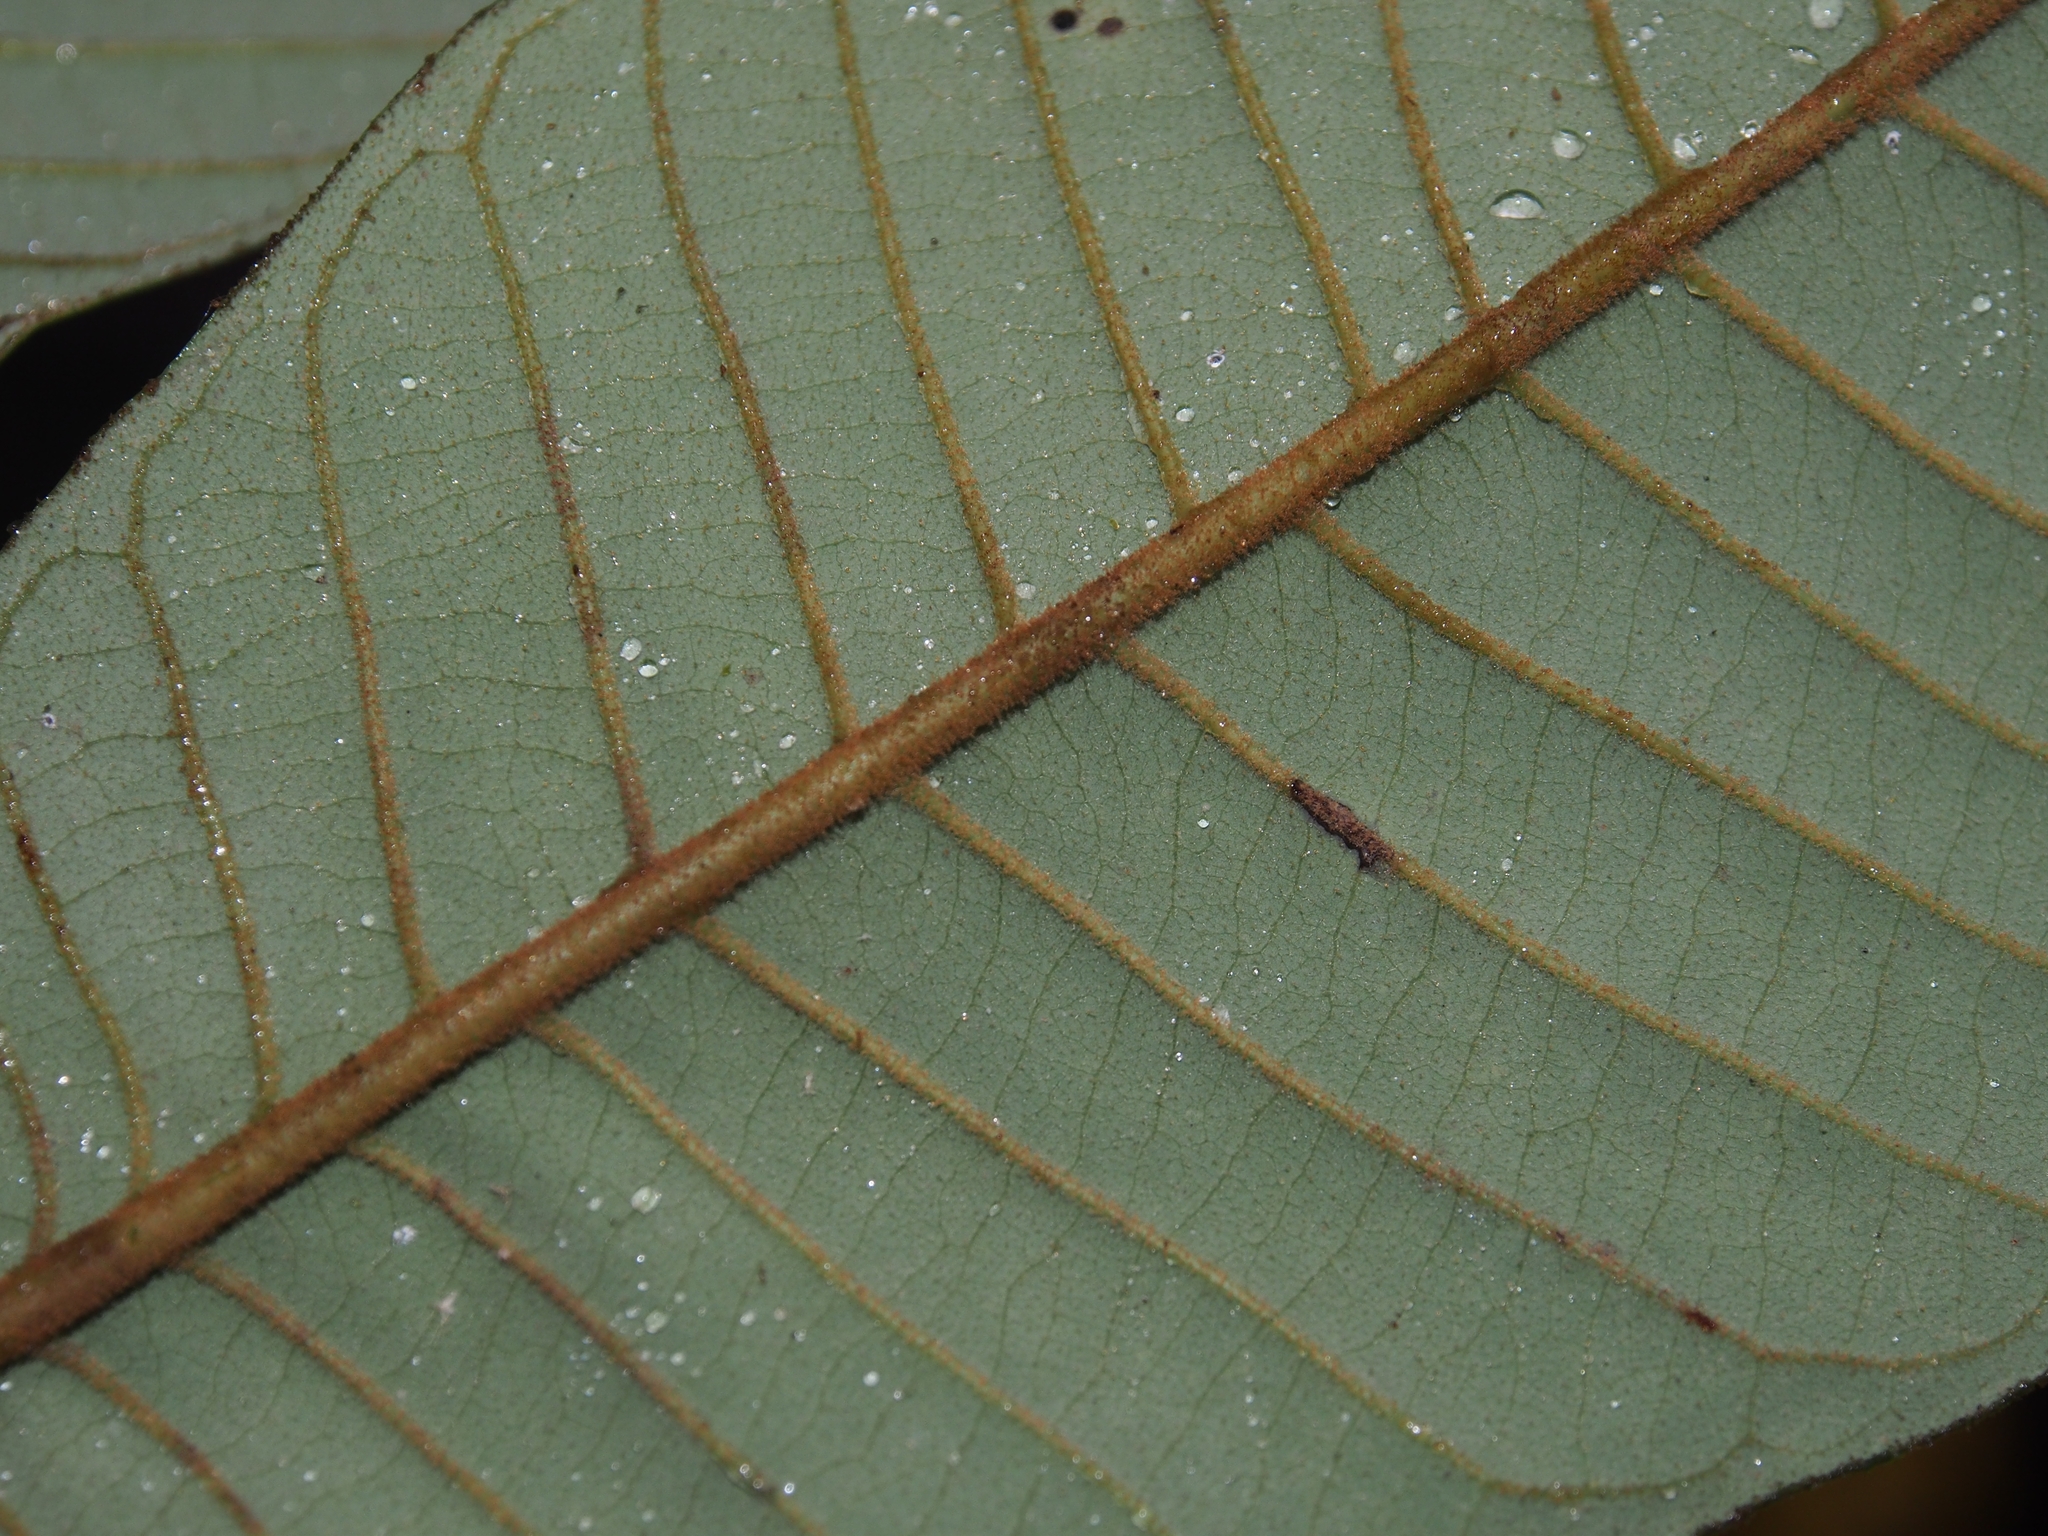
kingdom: Plantae
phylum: Tracheophyta
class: Magnoliopsida
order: Magnoliales
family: Myristicaceae
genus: Virola
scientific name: Virola koschnyi
